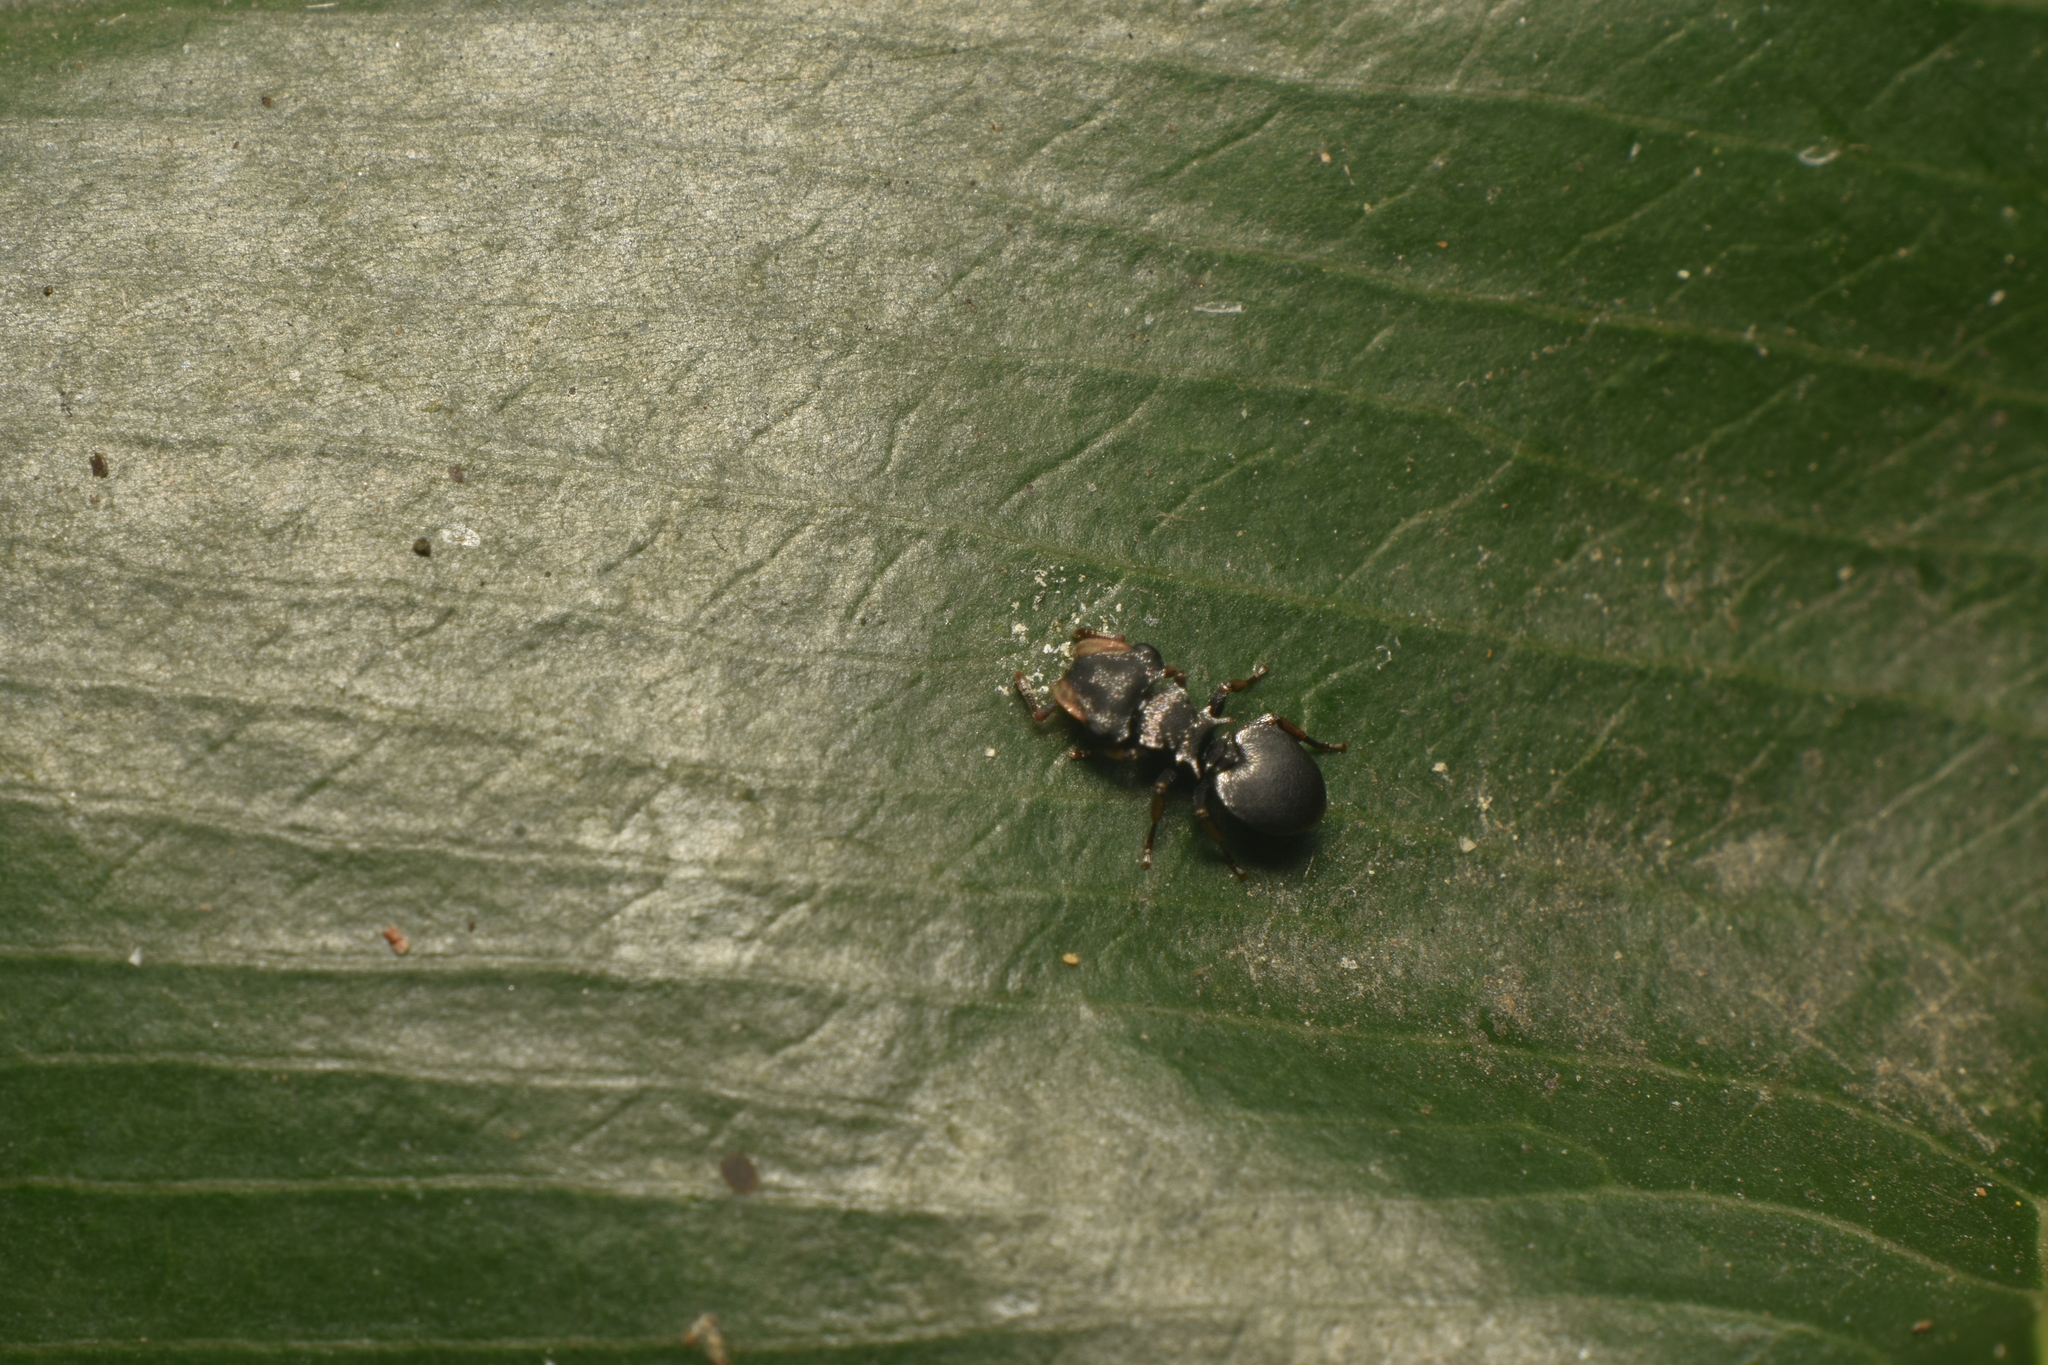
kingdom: Animalia
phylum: Arthropoda
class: Insecta
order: Hymenoptera
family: Formicidae
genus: Cephalotes
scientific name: Cephalotes minutus
